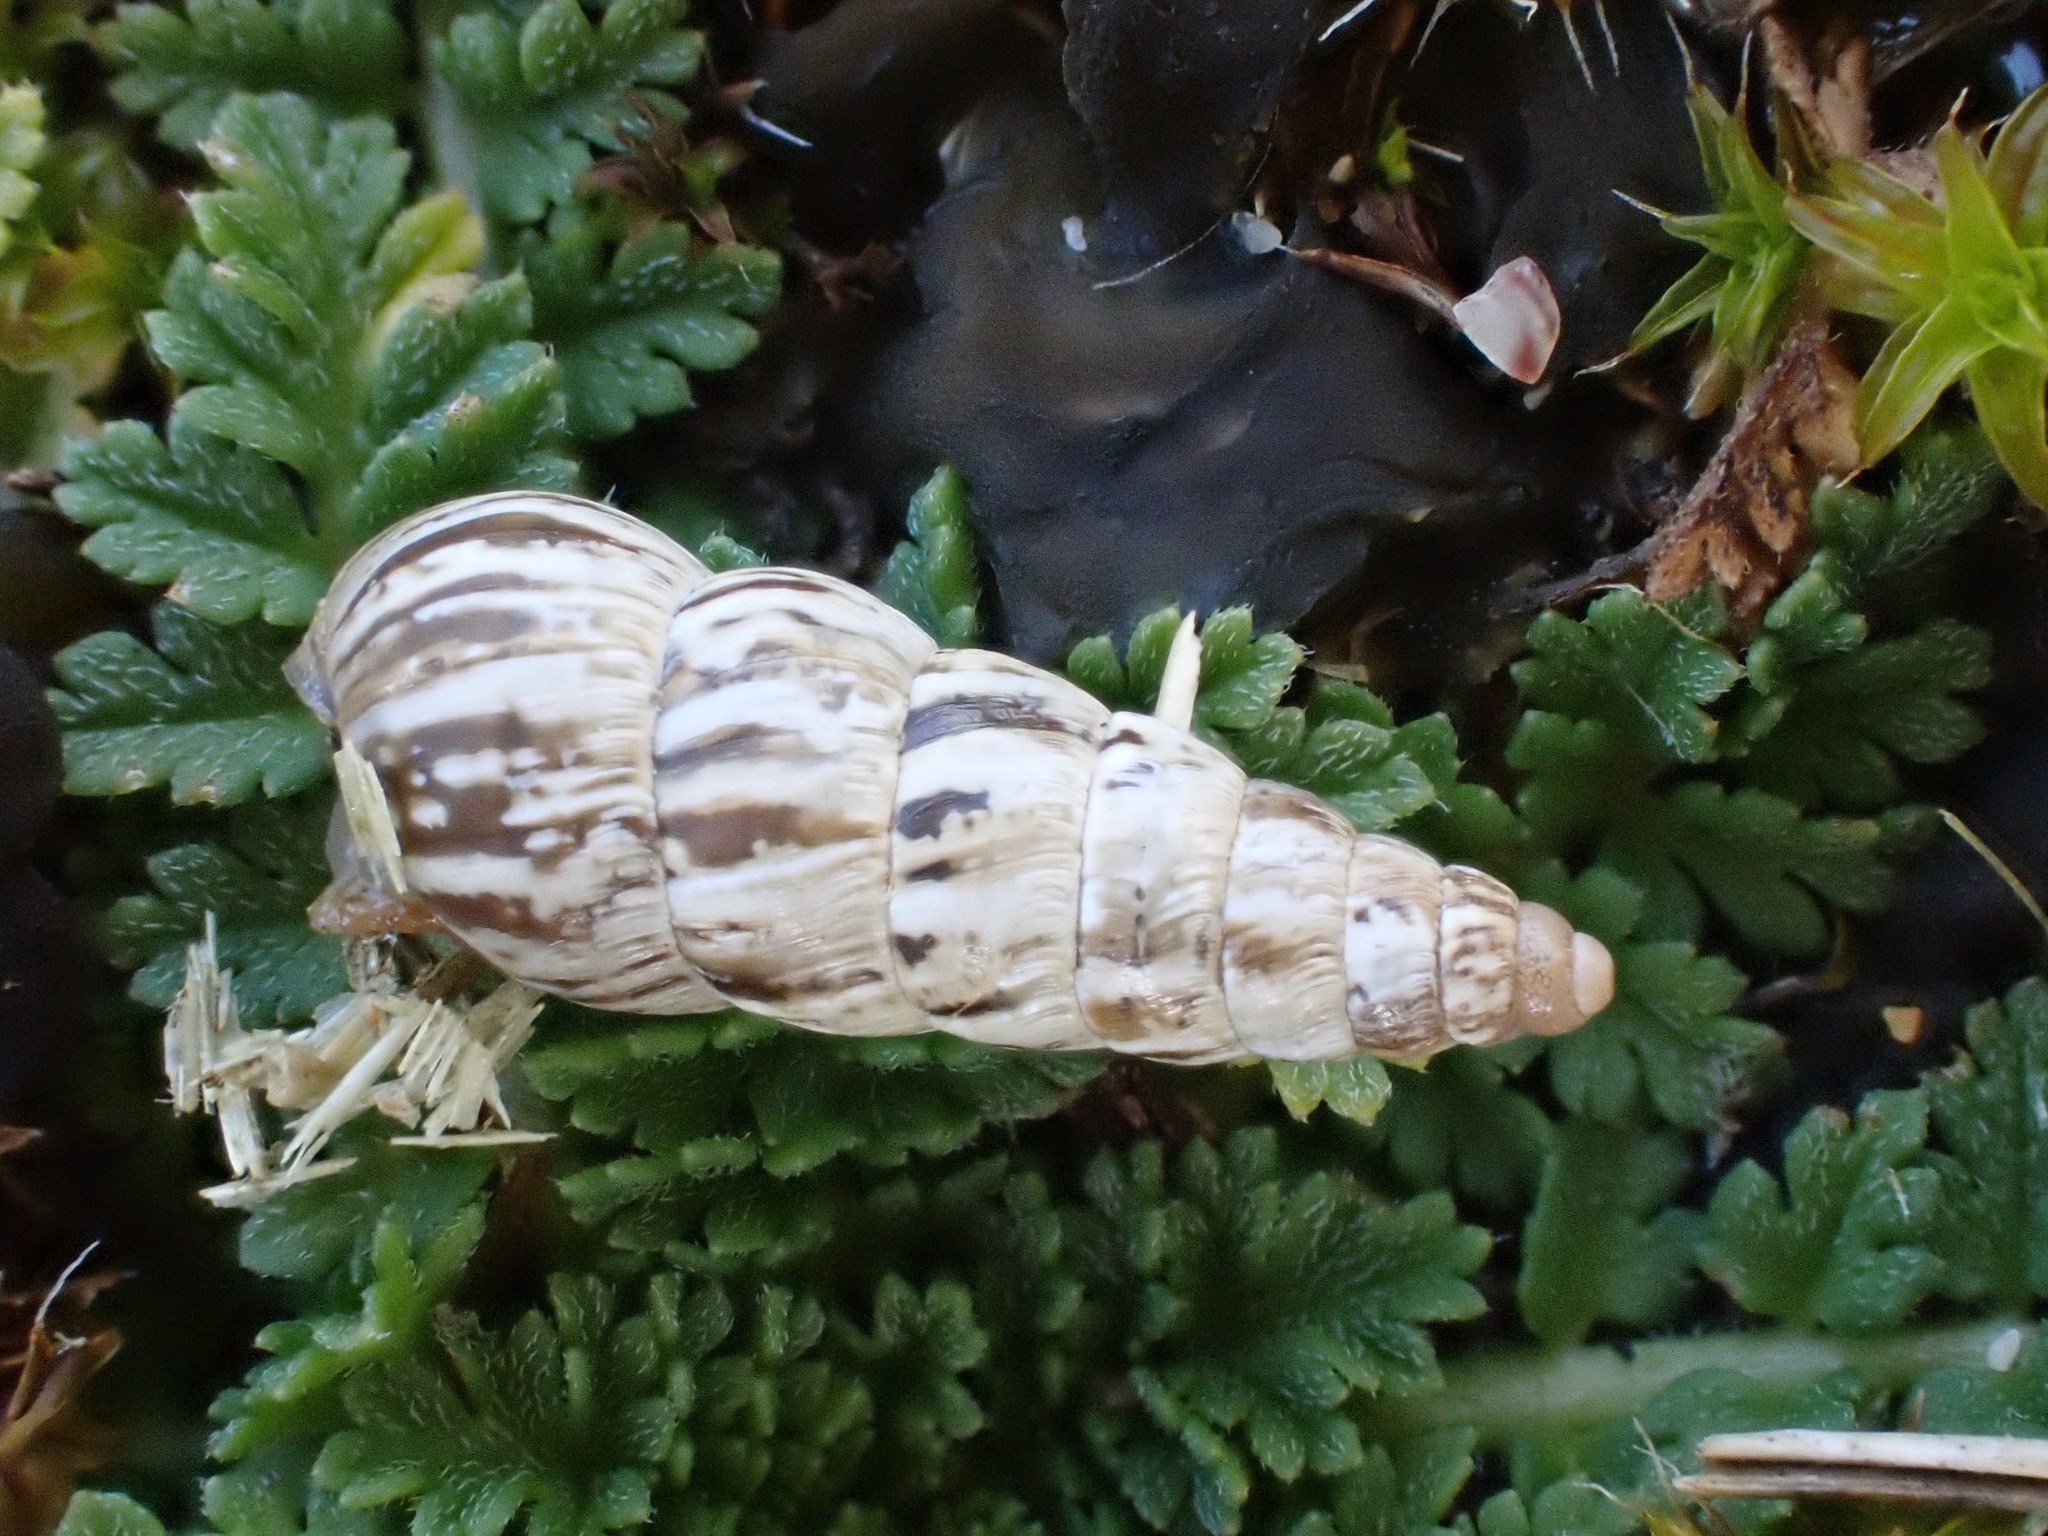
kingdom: Animalia
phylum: Mollusca
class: Gastropoda
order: Stylommatophora
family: Geomitridae
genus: Cochlicella
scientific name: Cochlicella acuta
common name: Pointed snail
